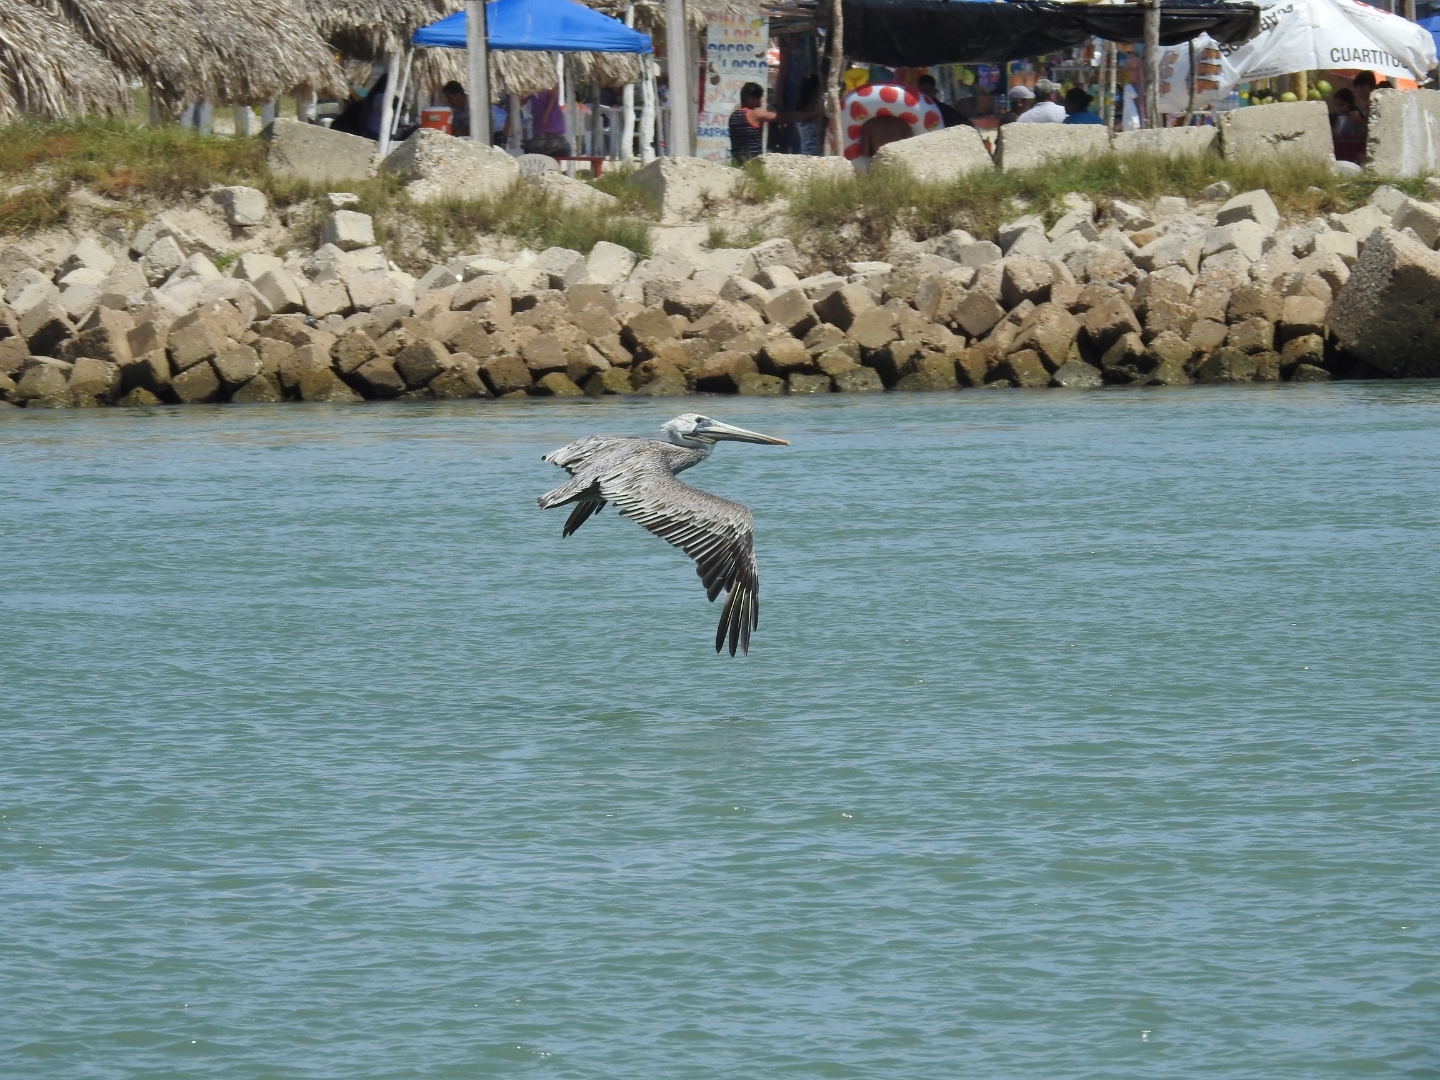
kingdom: Animalia
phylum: Chordata
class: Aves
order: Pelecaniformes
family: Pelecanidae
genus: Pelecanus
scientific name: Pelecanus occidentalis
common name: Brown pelican
